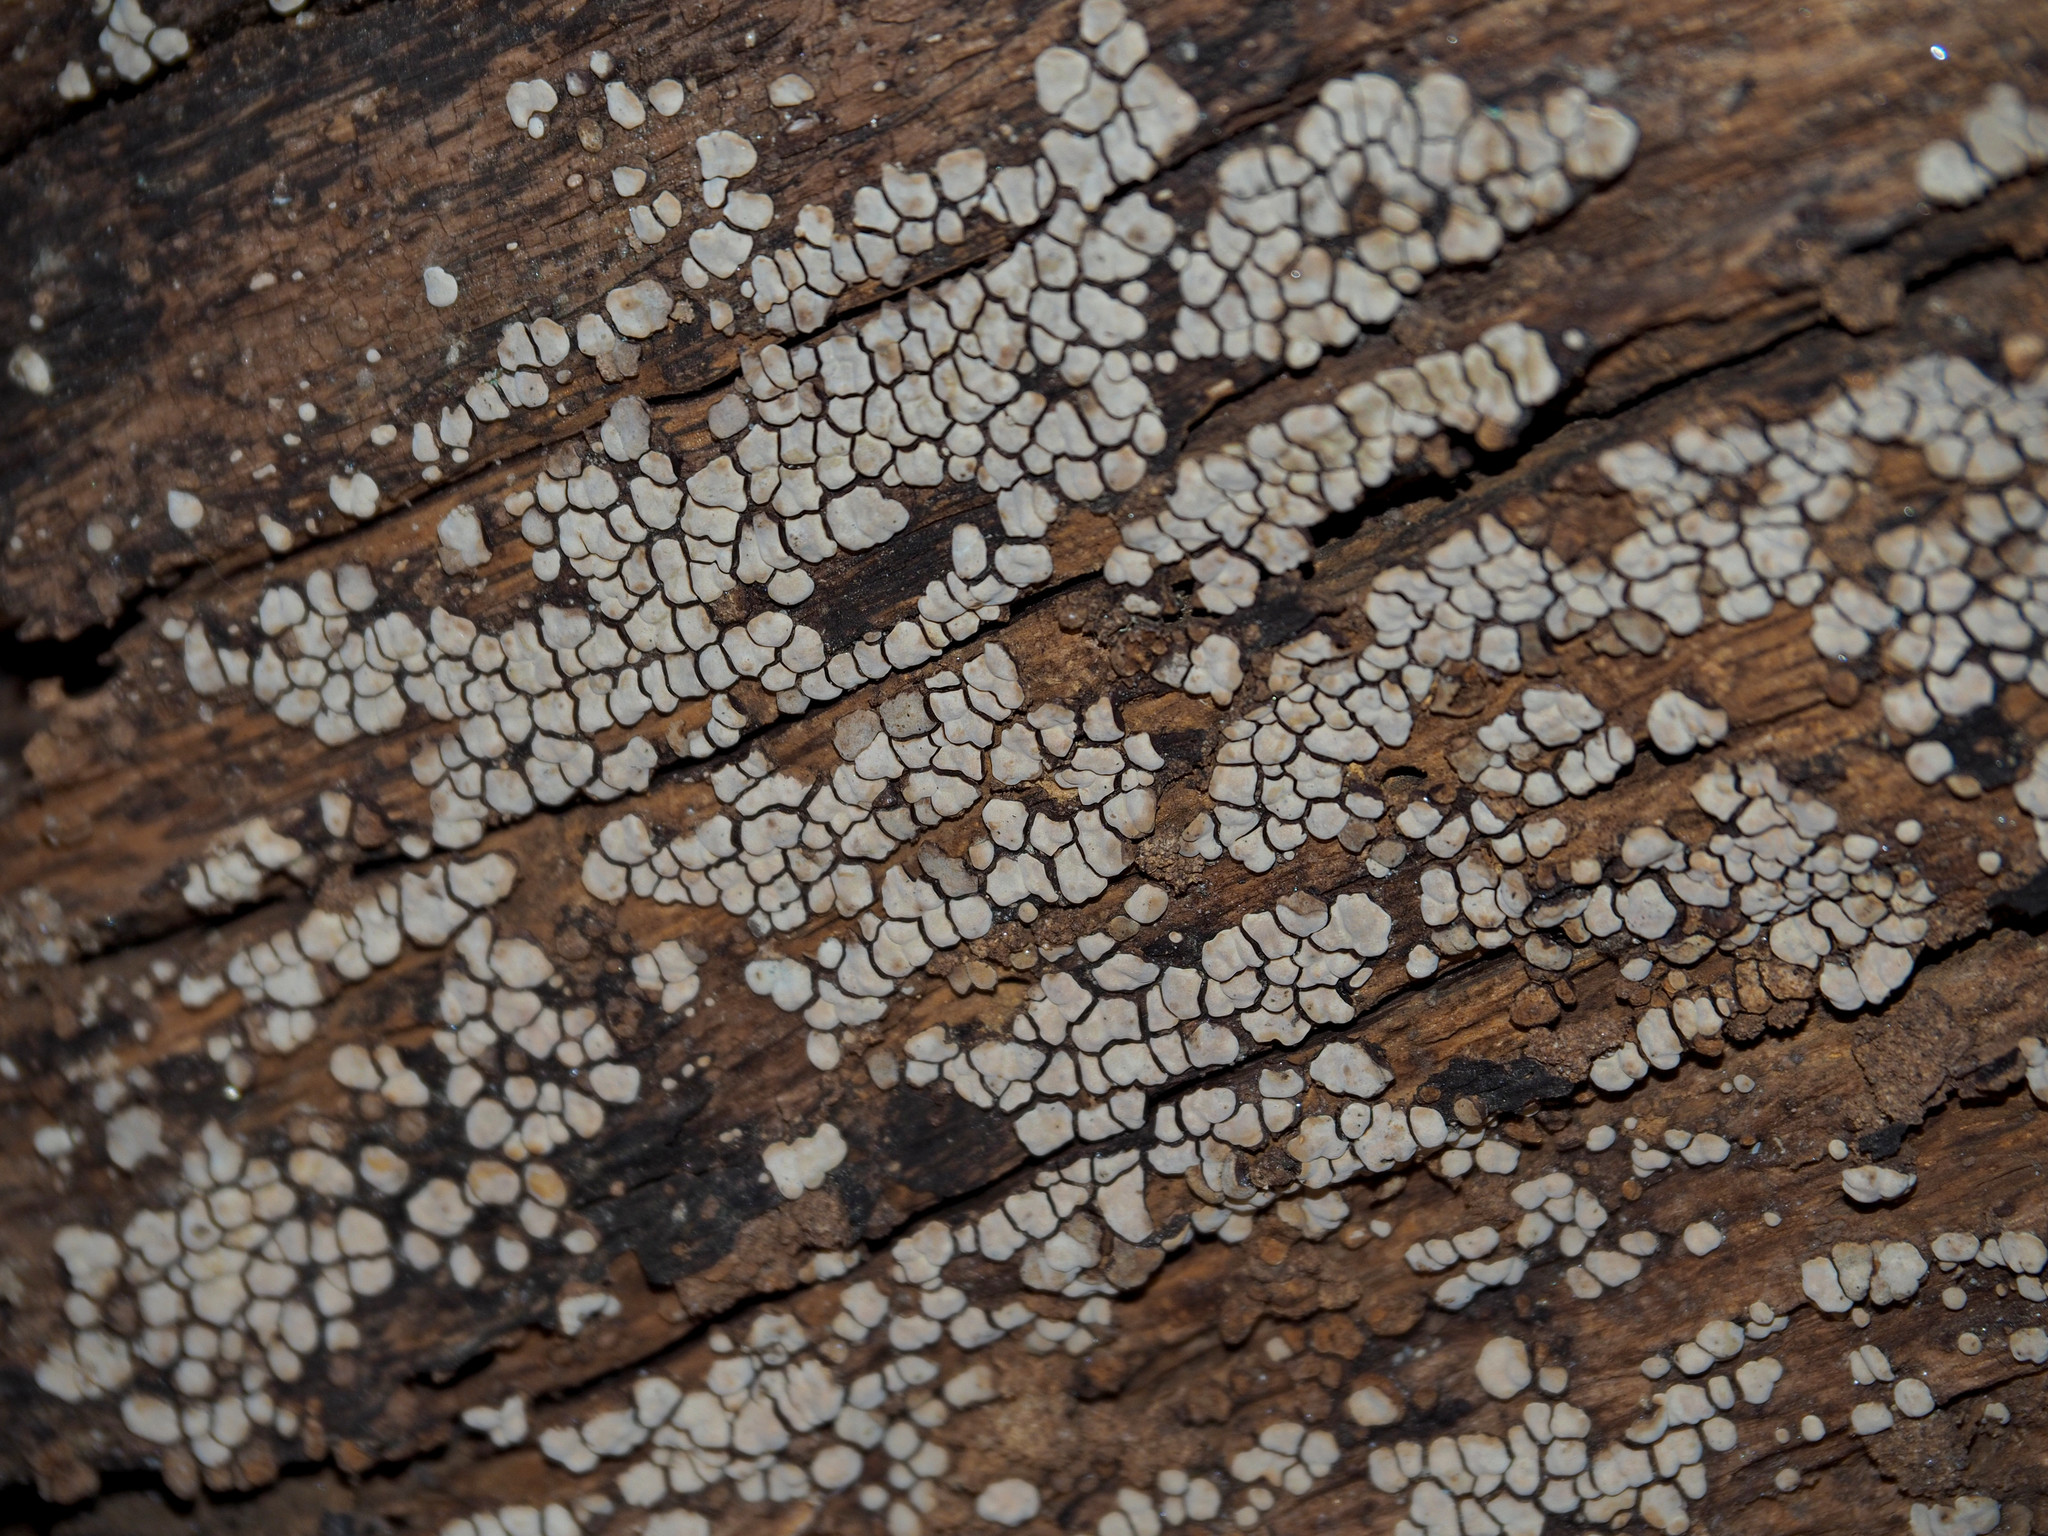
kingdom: Fungi
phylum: Basidiomycota
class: Agaricomycetes
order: Russulales
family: Stereaceae
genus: Xylobolus
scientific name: Xylobolus frustulatus
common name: Ceramic parchment
